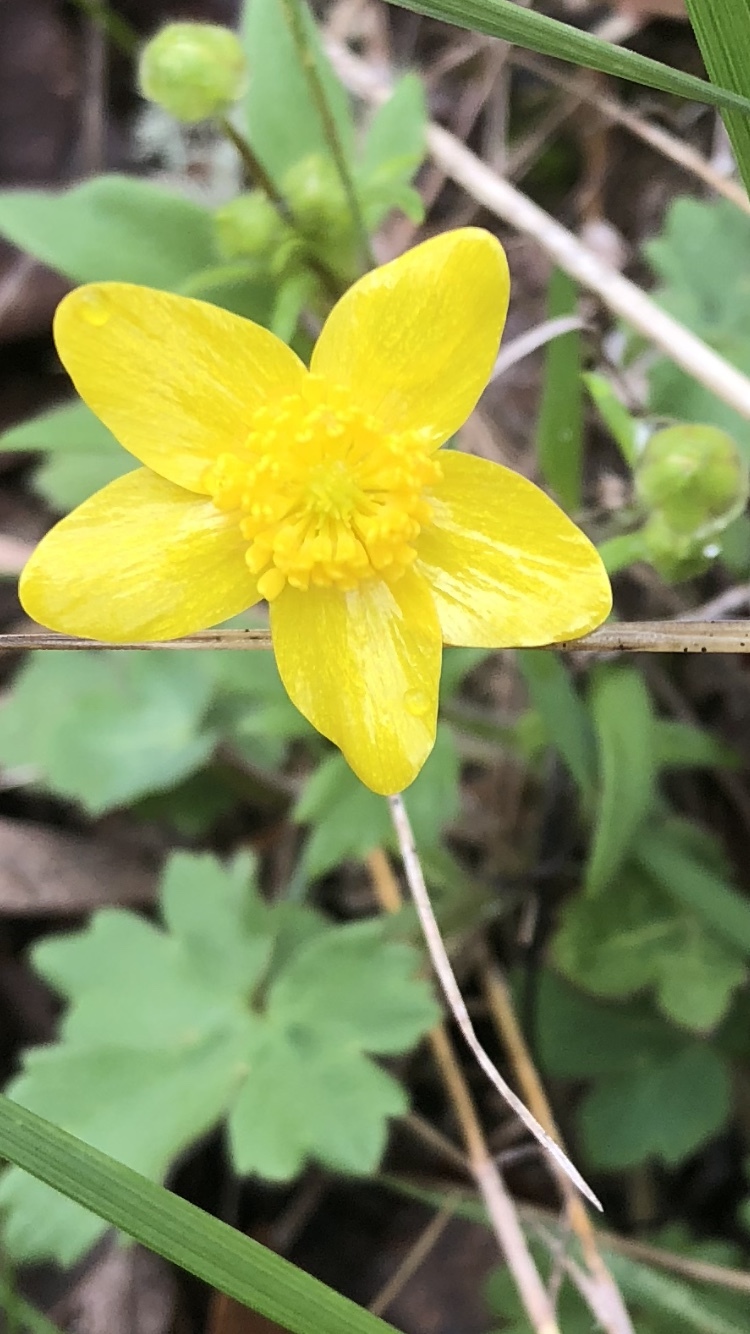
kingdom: Plantae
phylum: Tracheophyta
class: Magnoliopsida
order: Ranunculales
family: Ranunculaceae
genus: Ranunculus
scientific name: Ranunculus occidentalis
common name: Western buttercup
